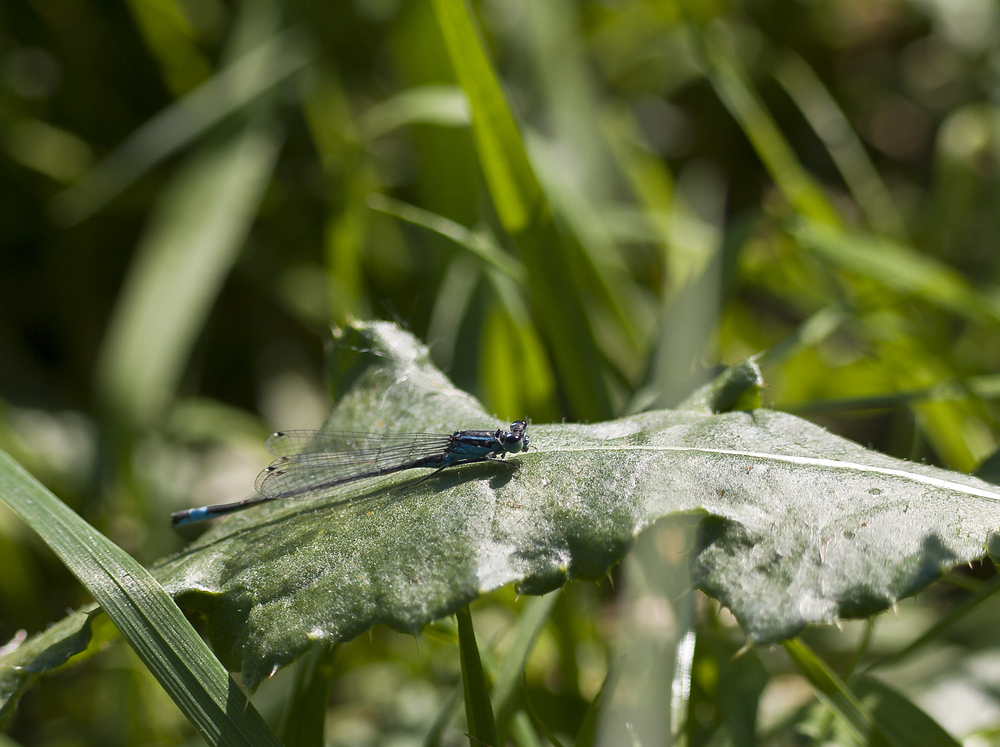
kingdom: Animalia
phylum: Arthropoda
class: Insecta
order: Odonata
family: Coenagrionidae
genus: Ischnura
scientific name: Ischnura elegans
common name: Blue-tailed damselfly
